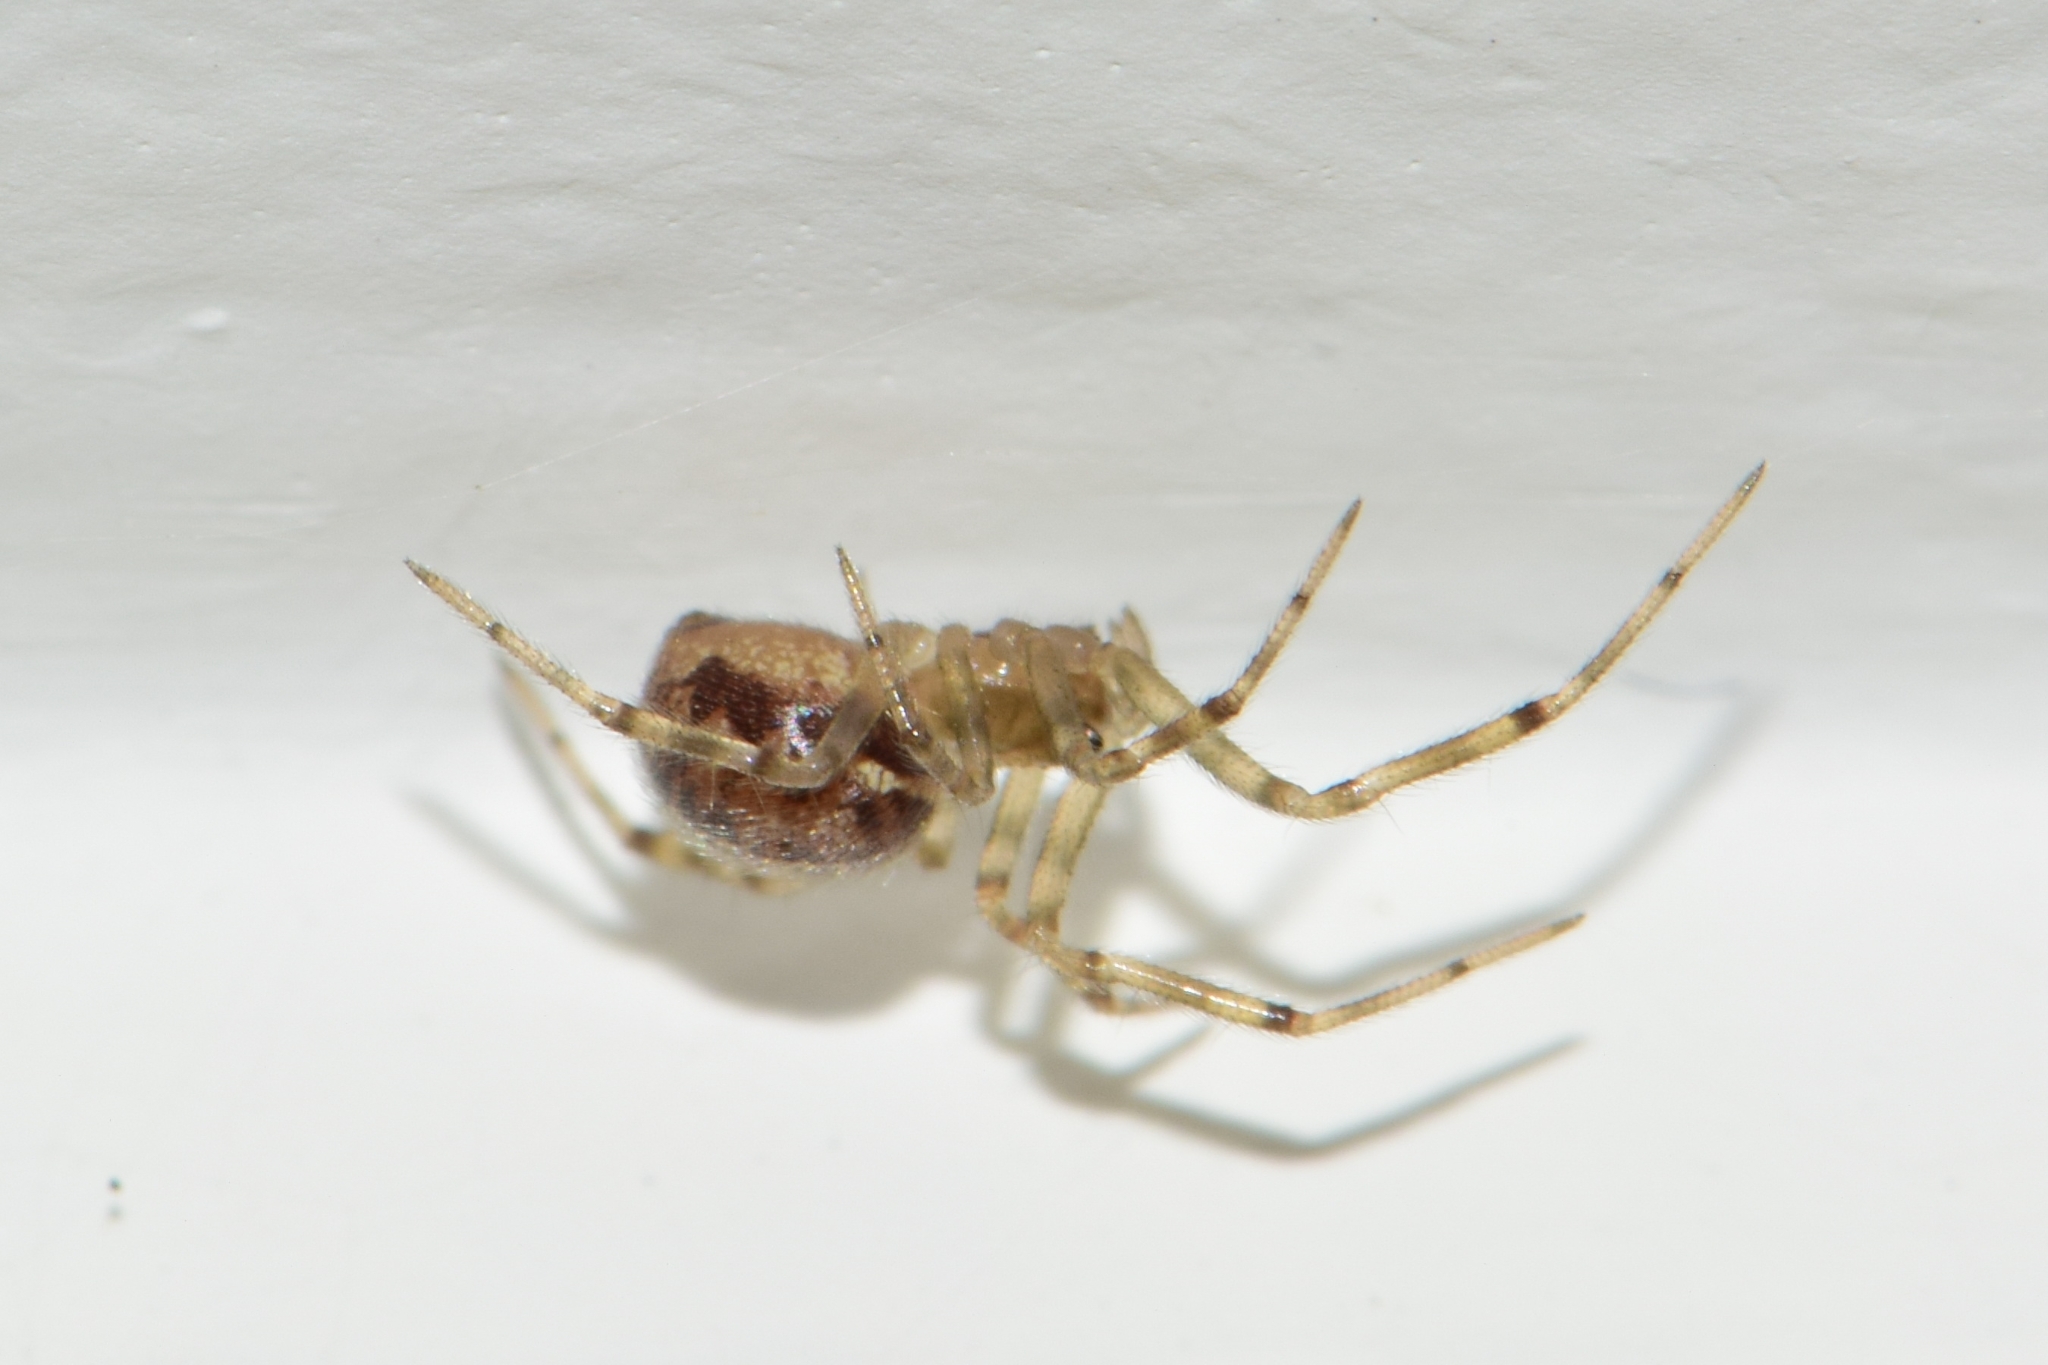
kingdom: Animalia
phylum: Arthropoda
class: Arachnida
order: Araneae
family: Theridiidae
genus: Steatoda
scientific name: Steatoda castanea
